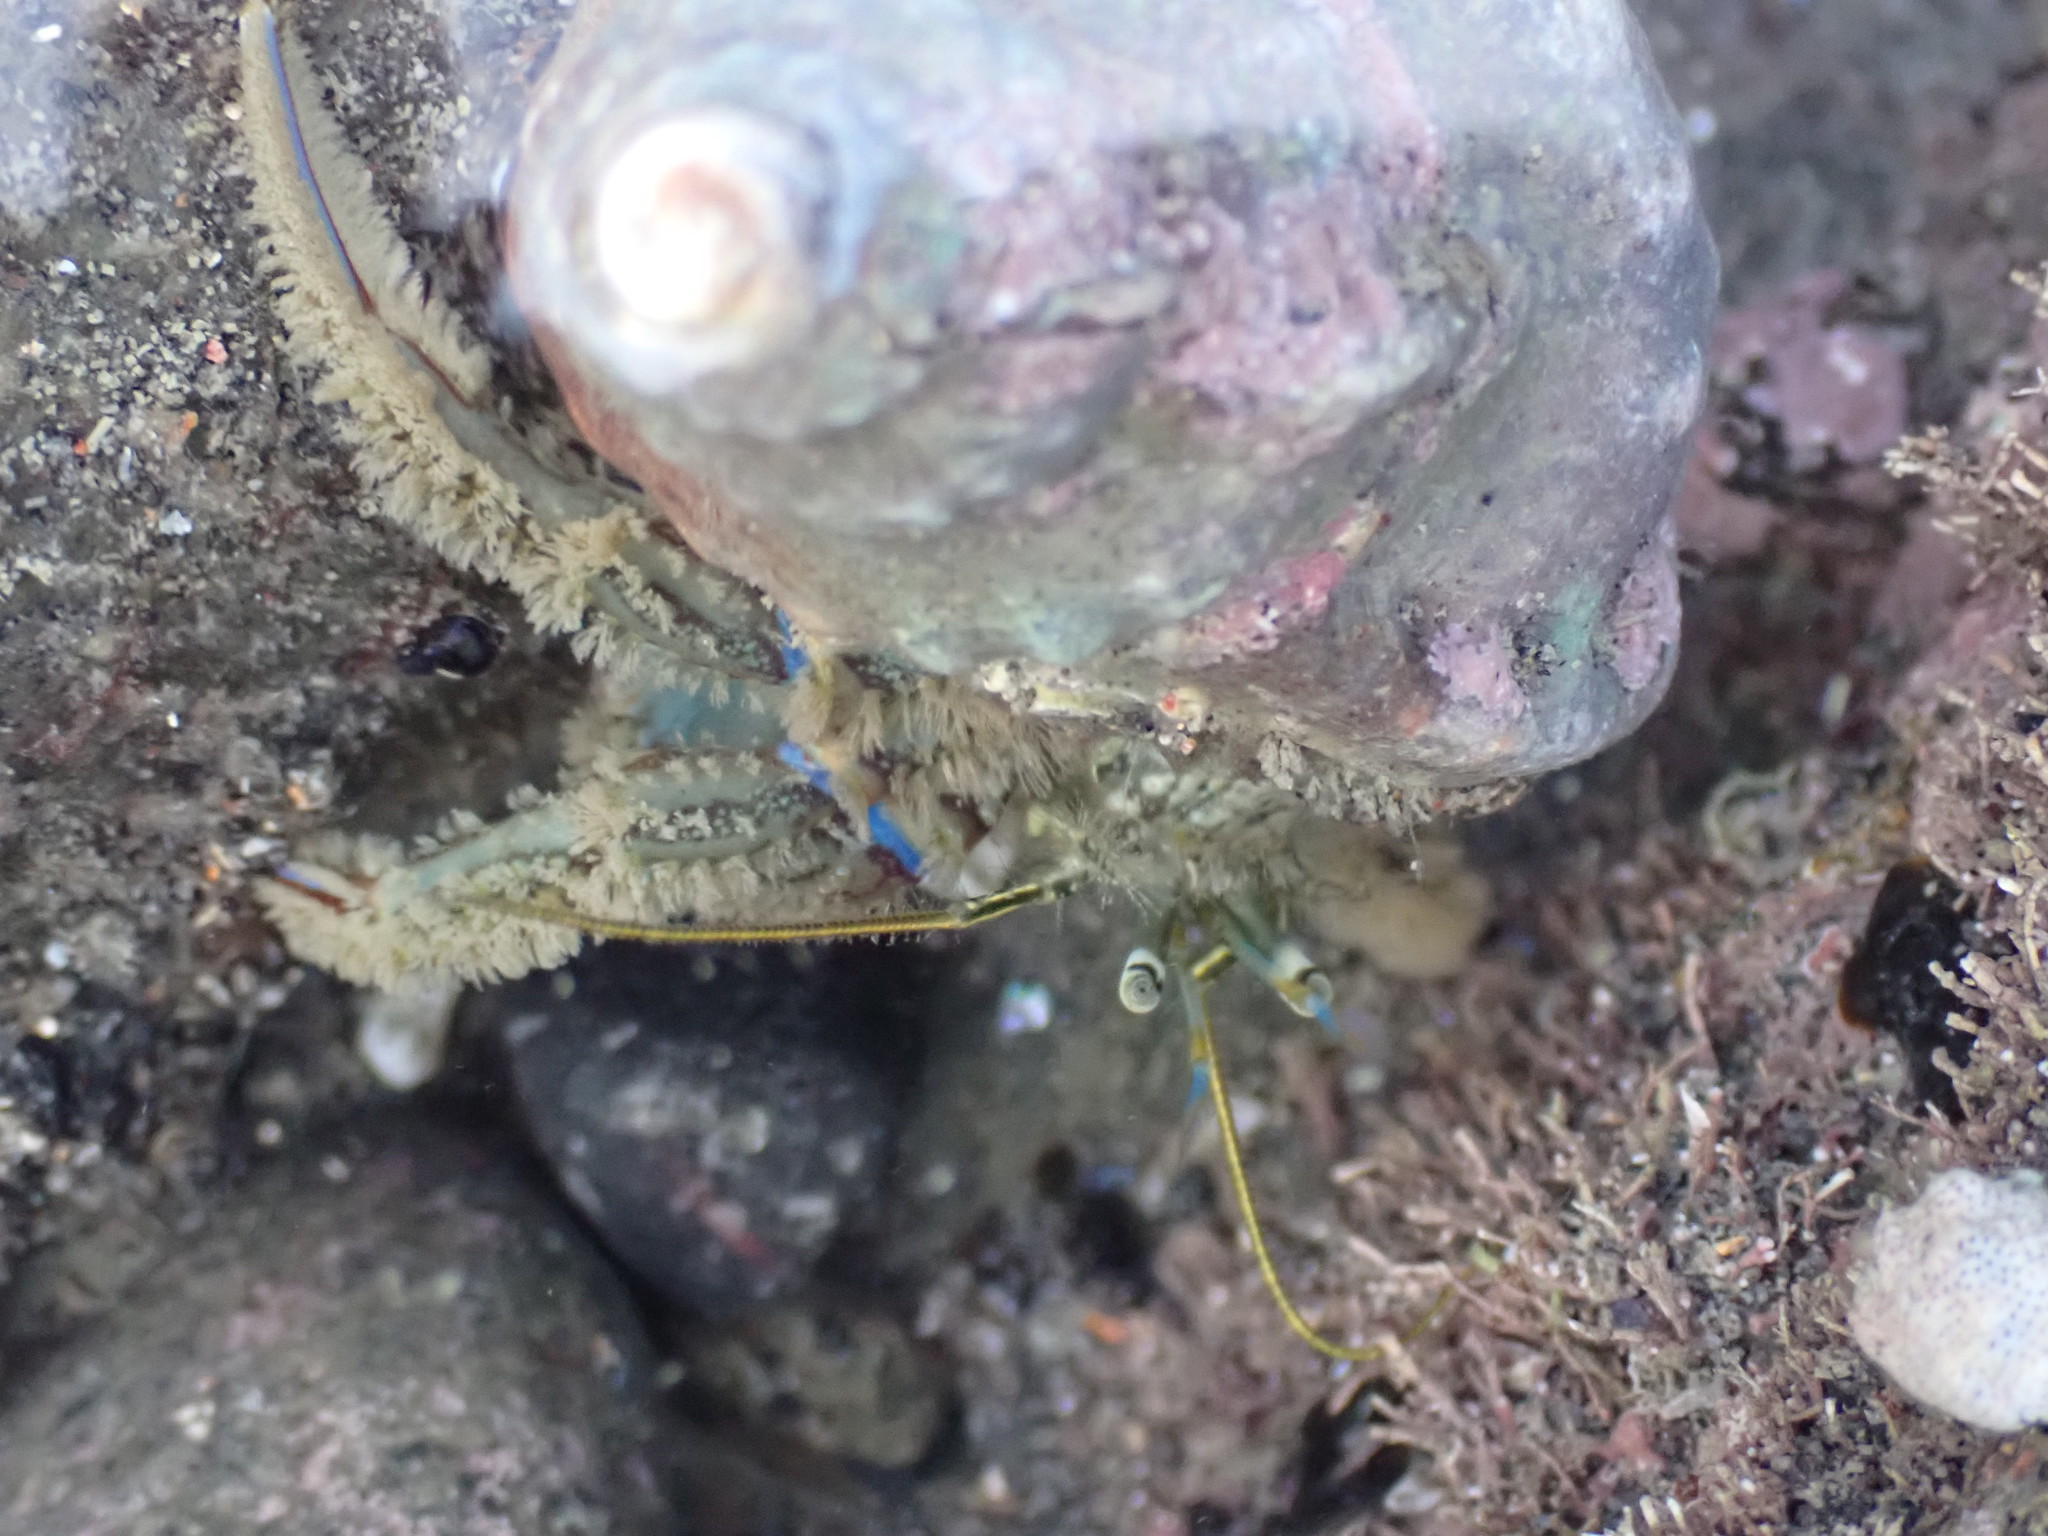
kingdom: Animalia
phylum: Arthropoda
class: Malacostraca
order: Decapoda
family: Paguridae
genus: Pagurus
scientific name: Pagurus novizealandiae
